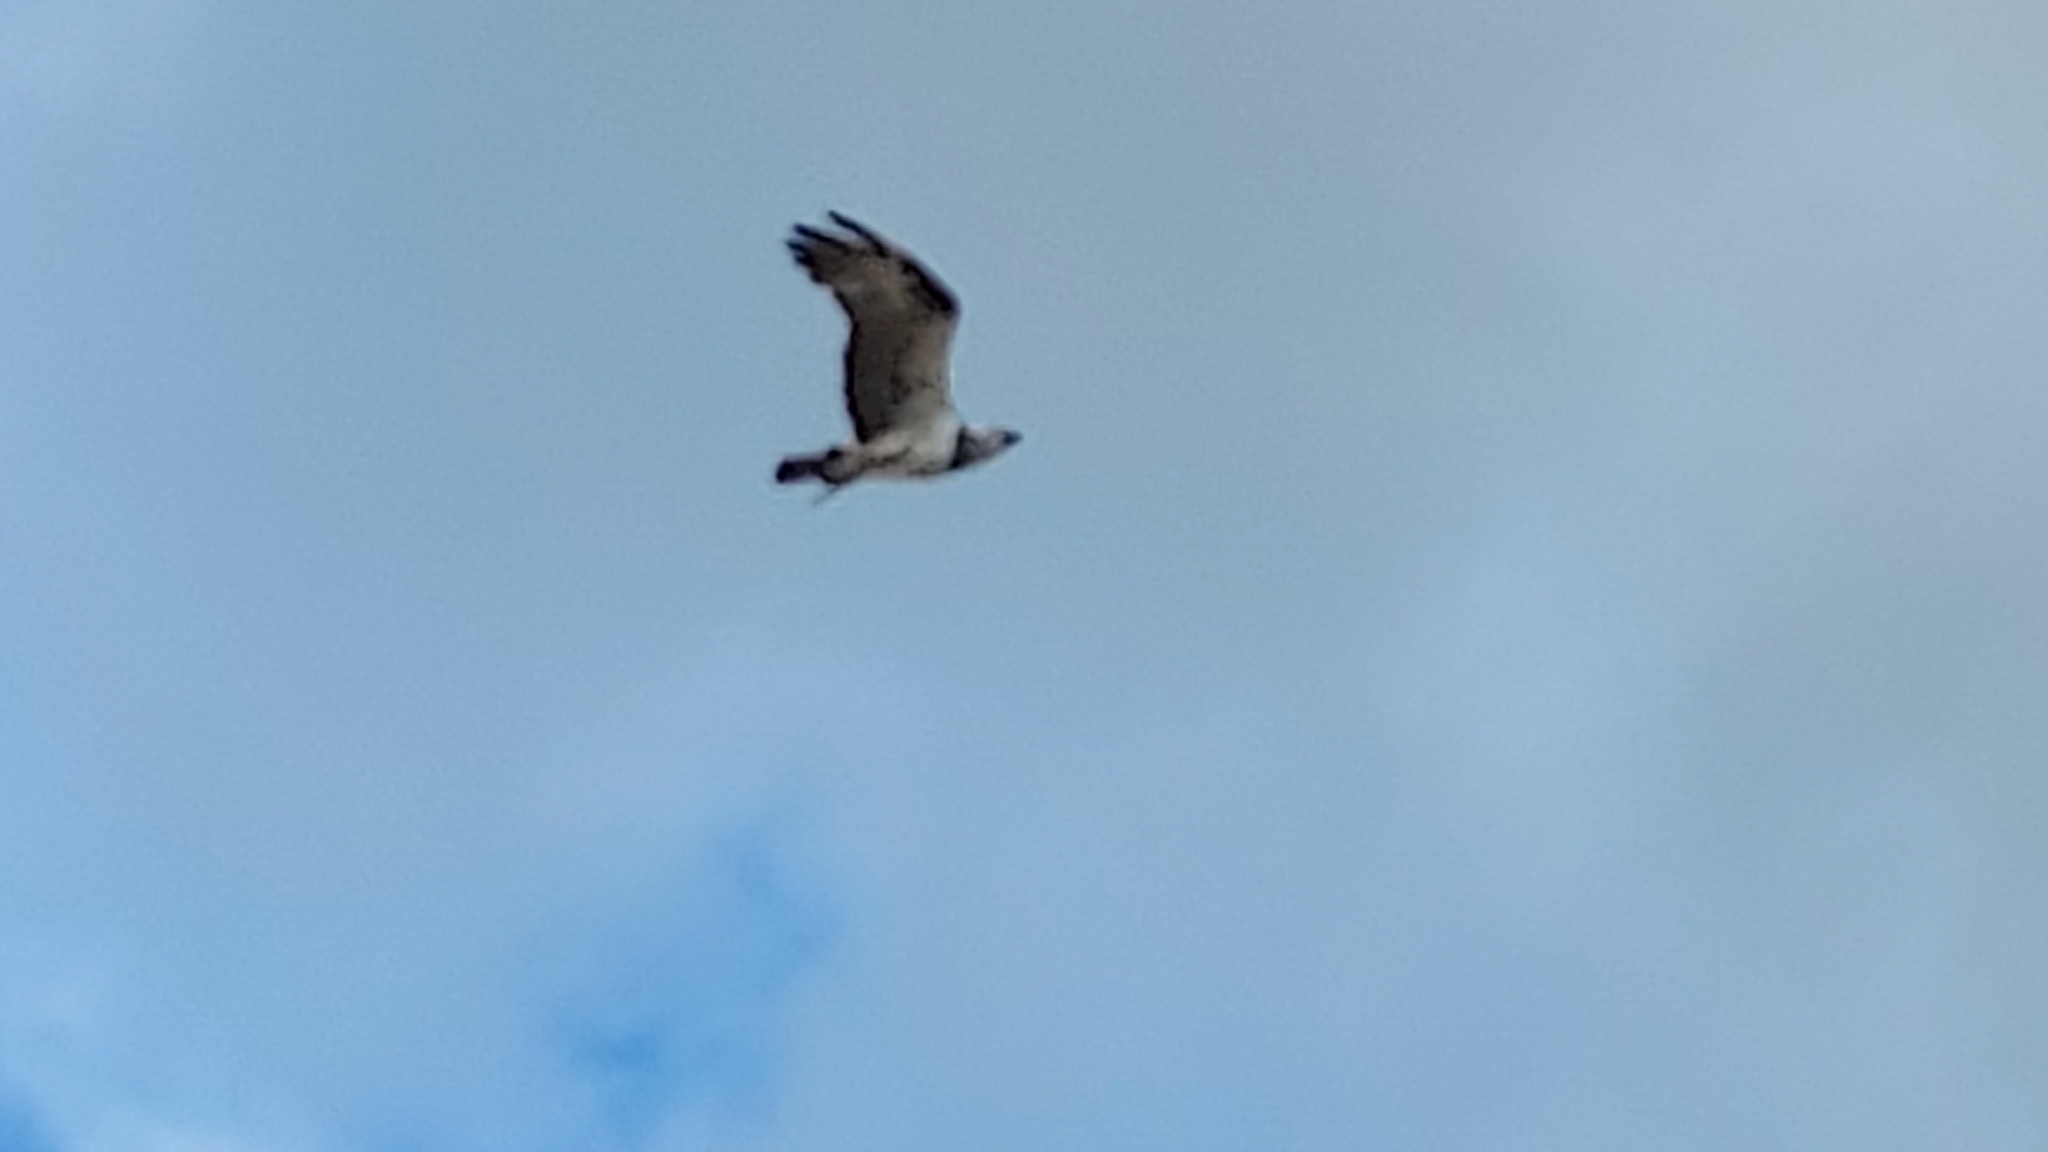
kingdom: Animalia
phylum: Chordata
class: Aves
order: Accipitriformes
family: Pandionidae
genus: Pandion
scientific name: Pandion haliaetus
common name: Osprey
